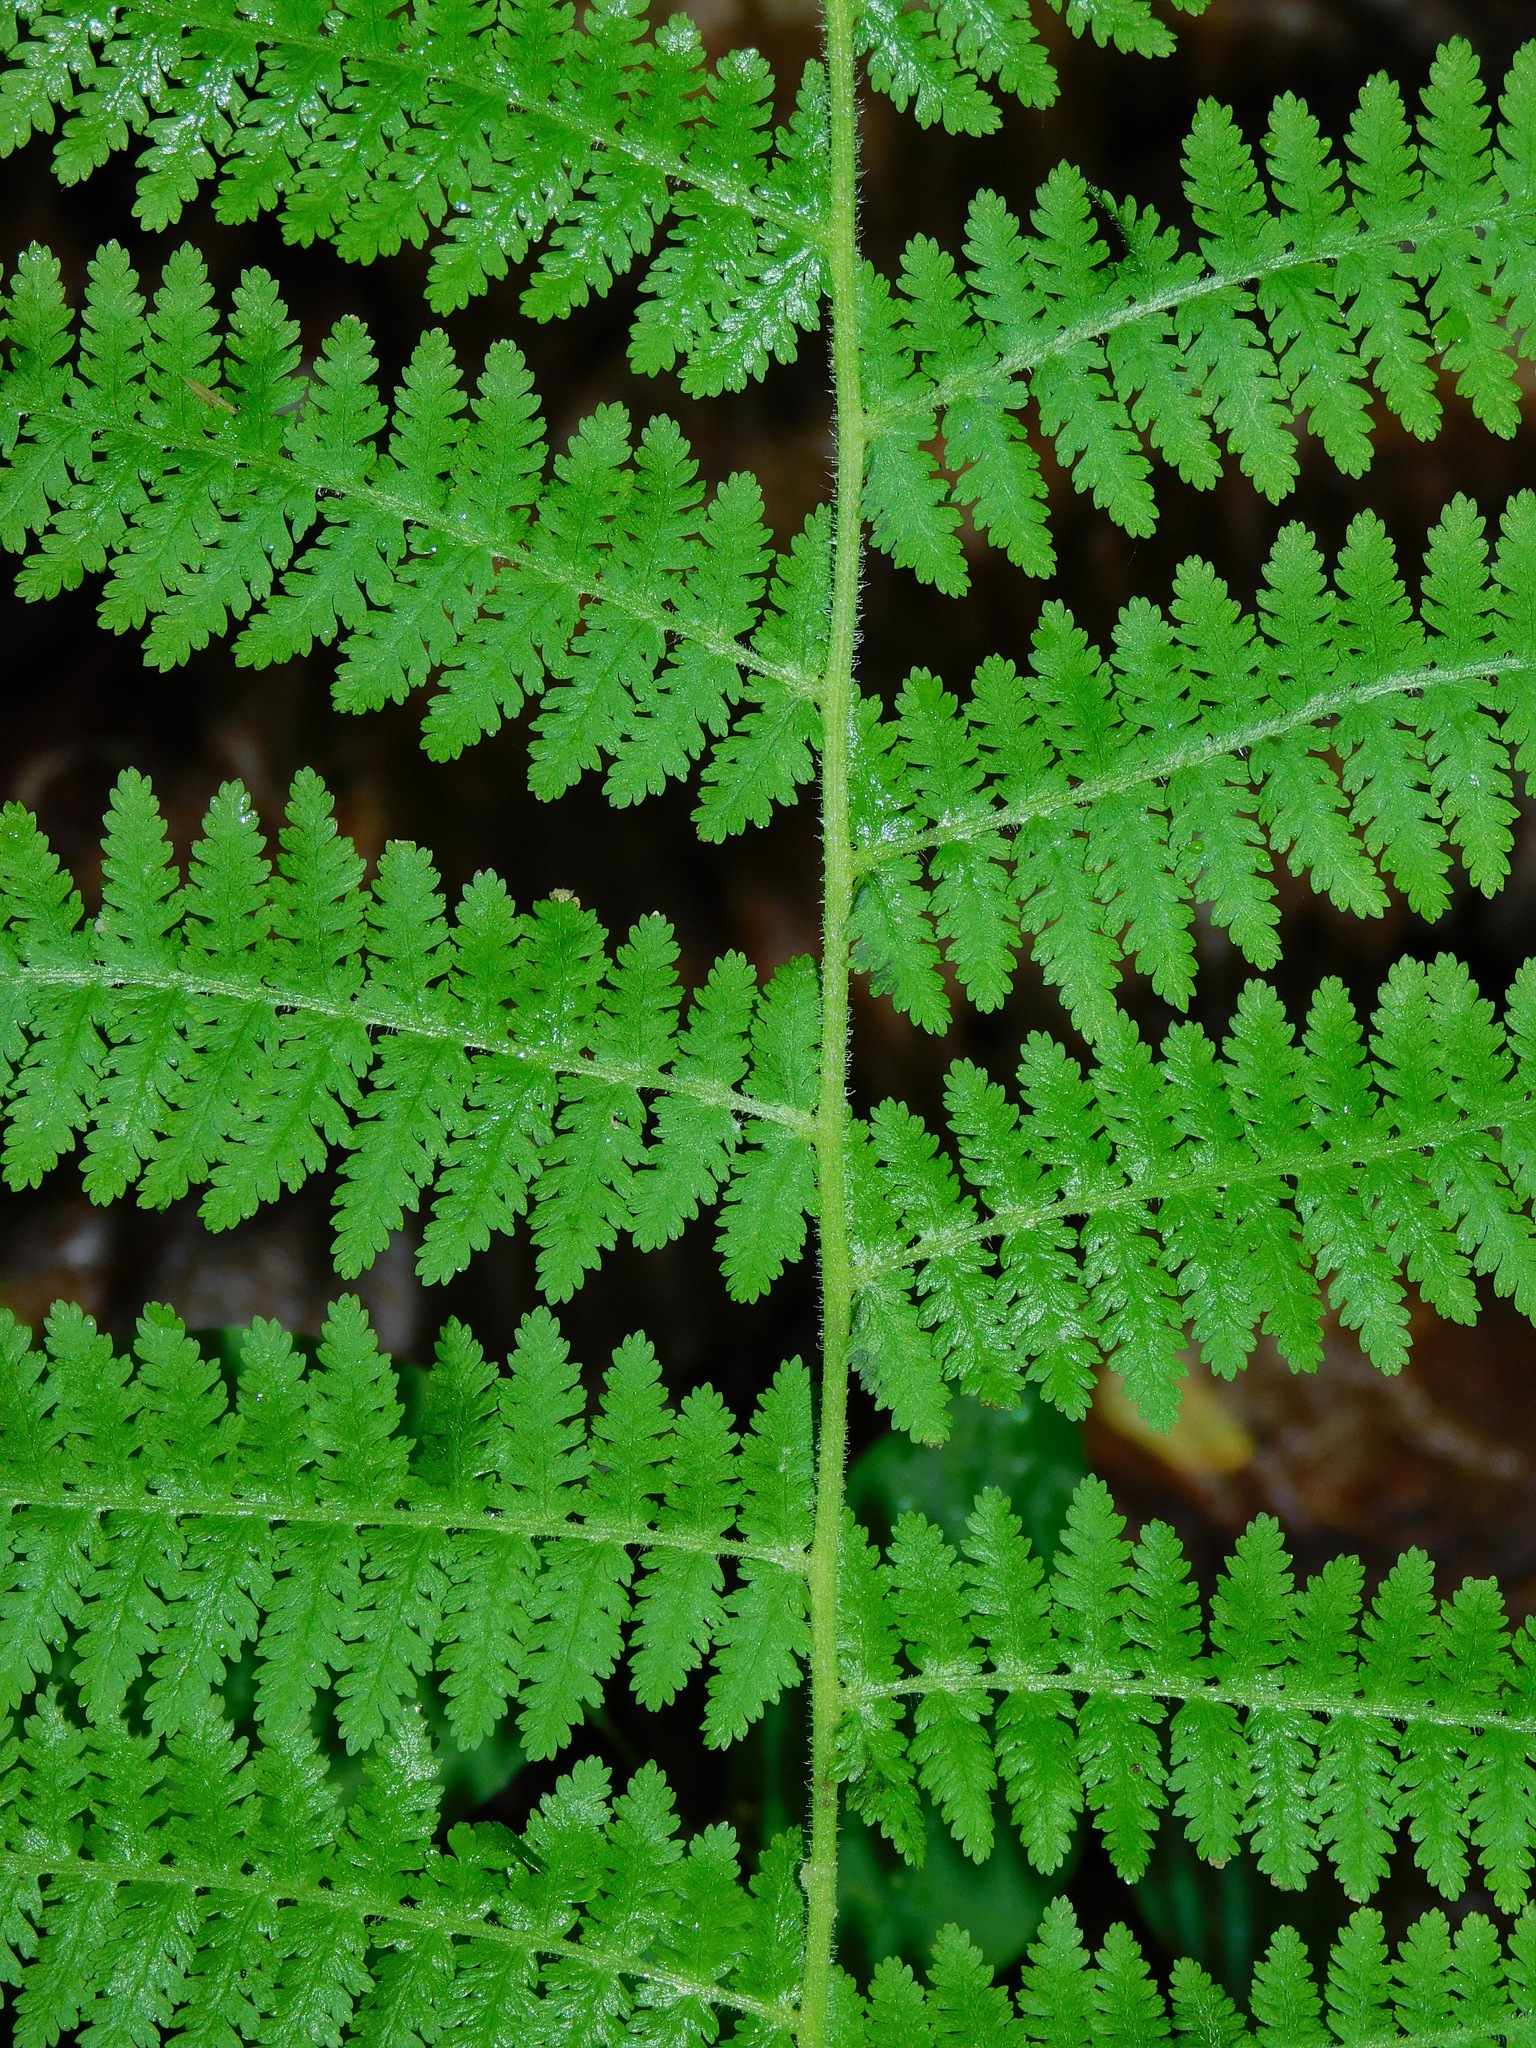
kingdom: Plantae
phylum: Tracheophyta
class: Polypodiopsida
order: Polypodiales
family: Dennstaedtiaceae
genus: Sitobolium
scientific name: Sitobolium punctilobum
